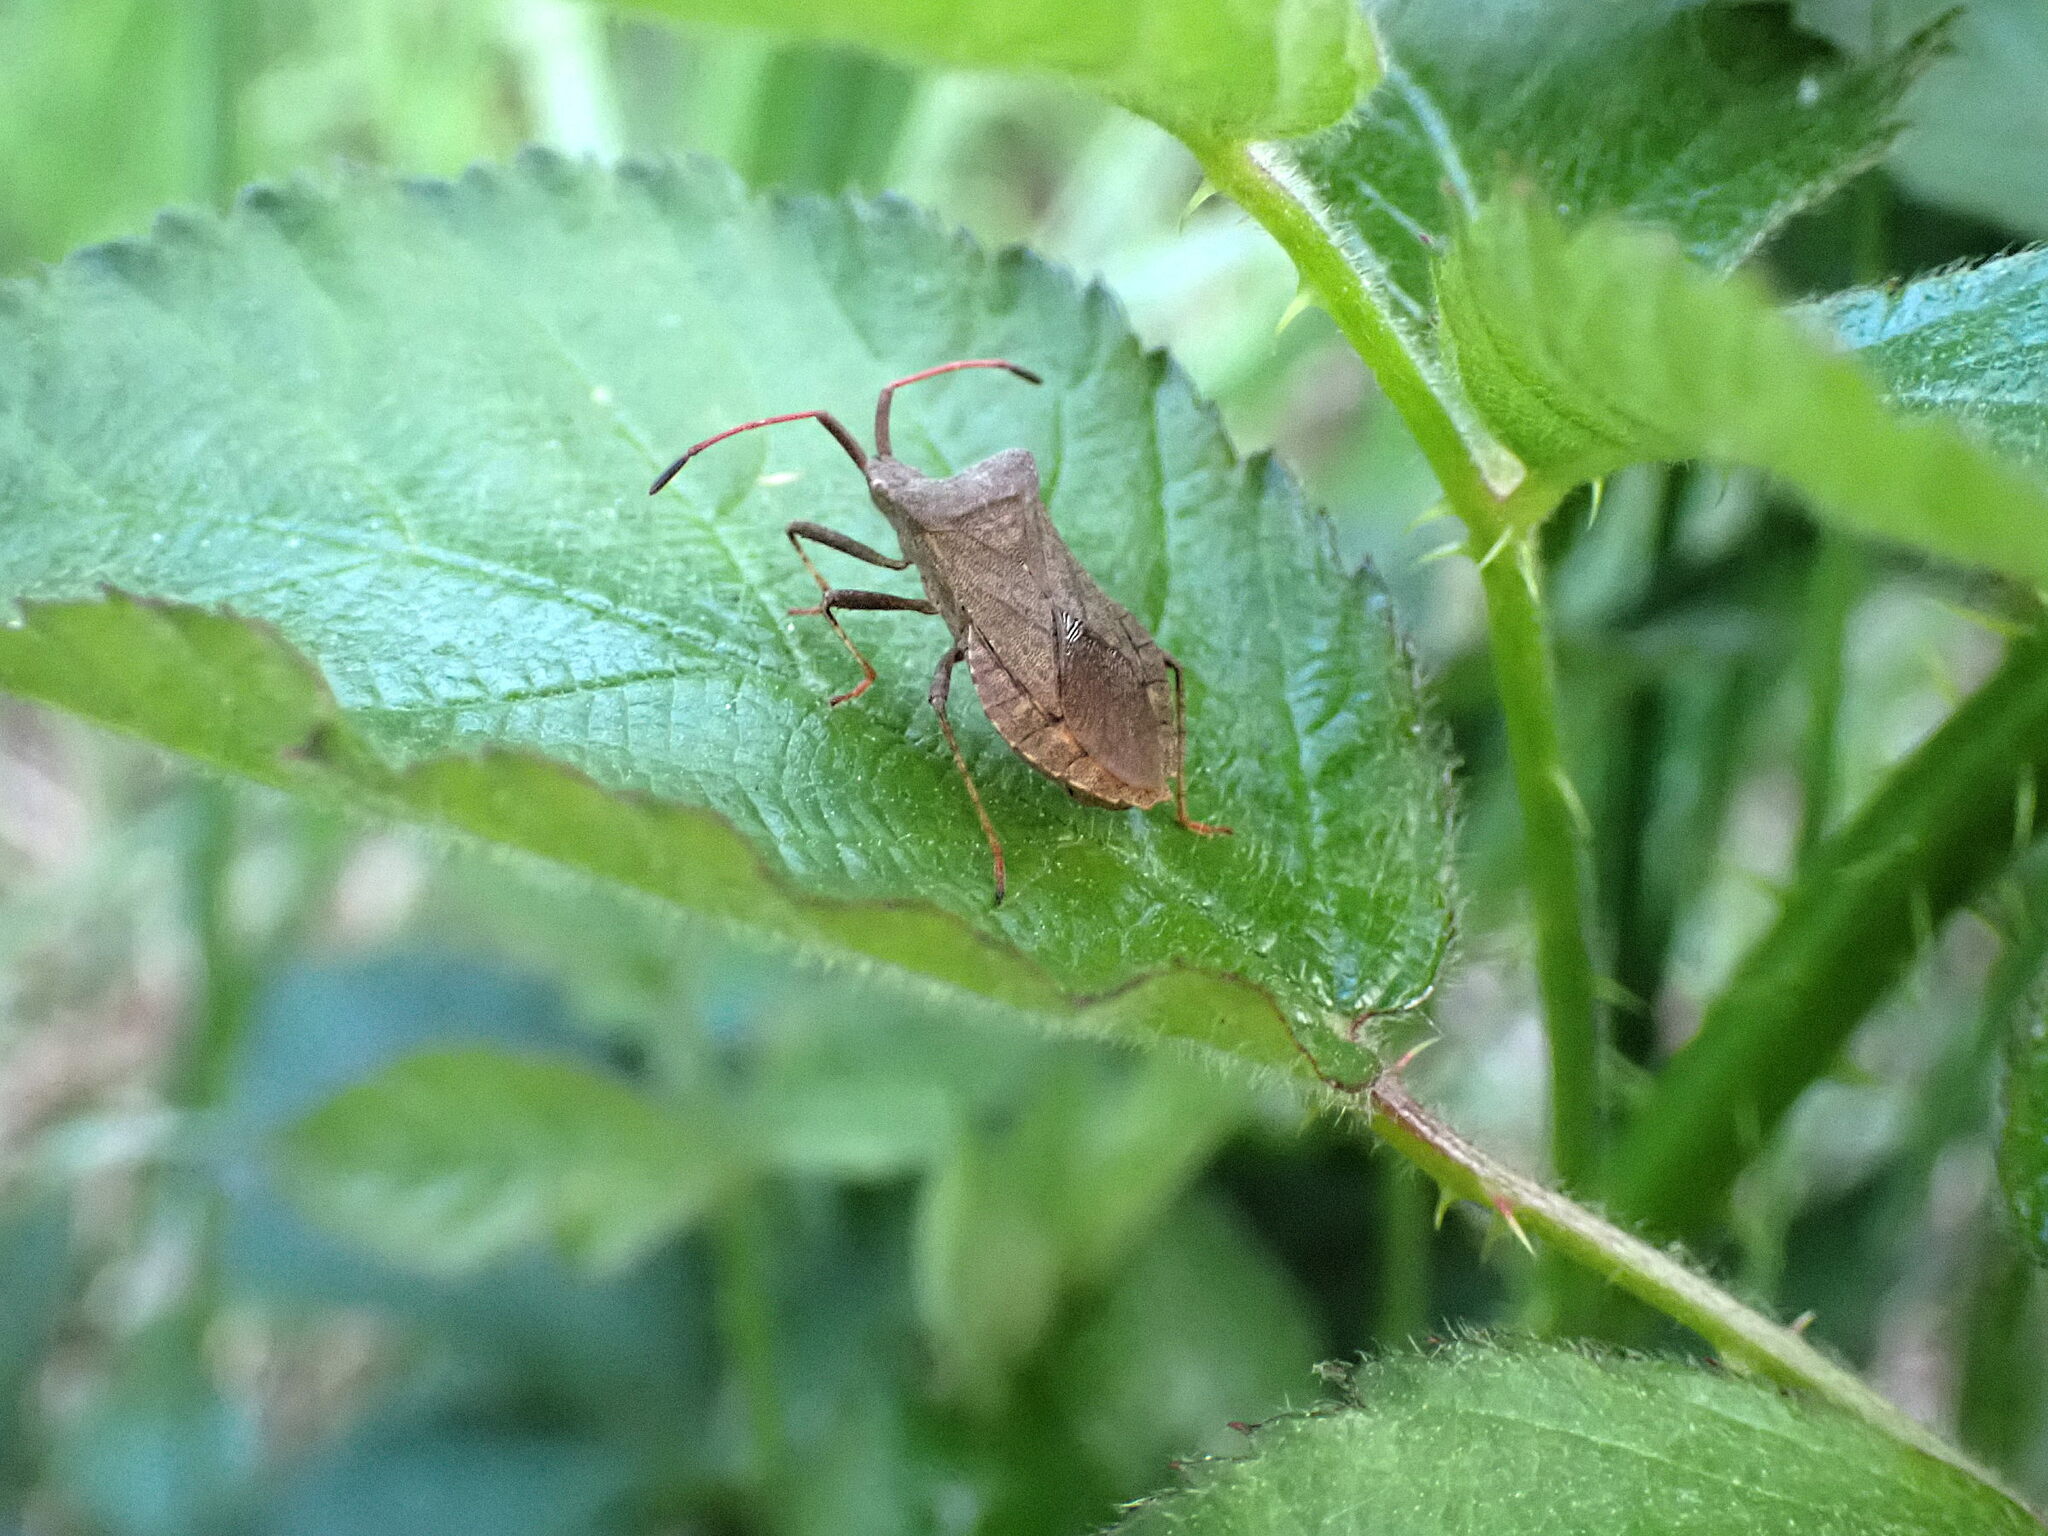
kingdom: Animalia
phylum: Arthropoda
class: Insecta
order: Hemiptera
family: Coreidae
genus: Coreus
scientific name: Coreus marginatus
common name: Dock bug
